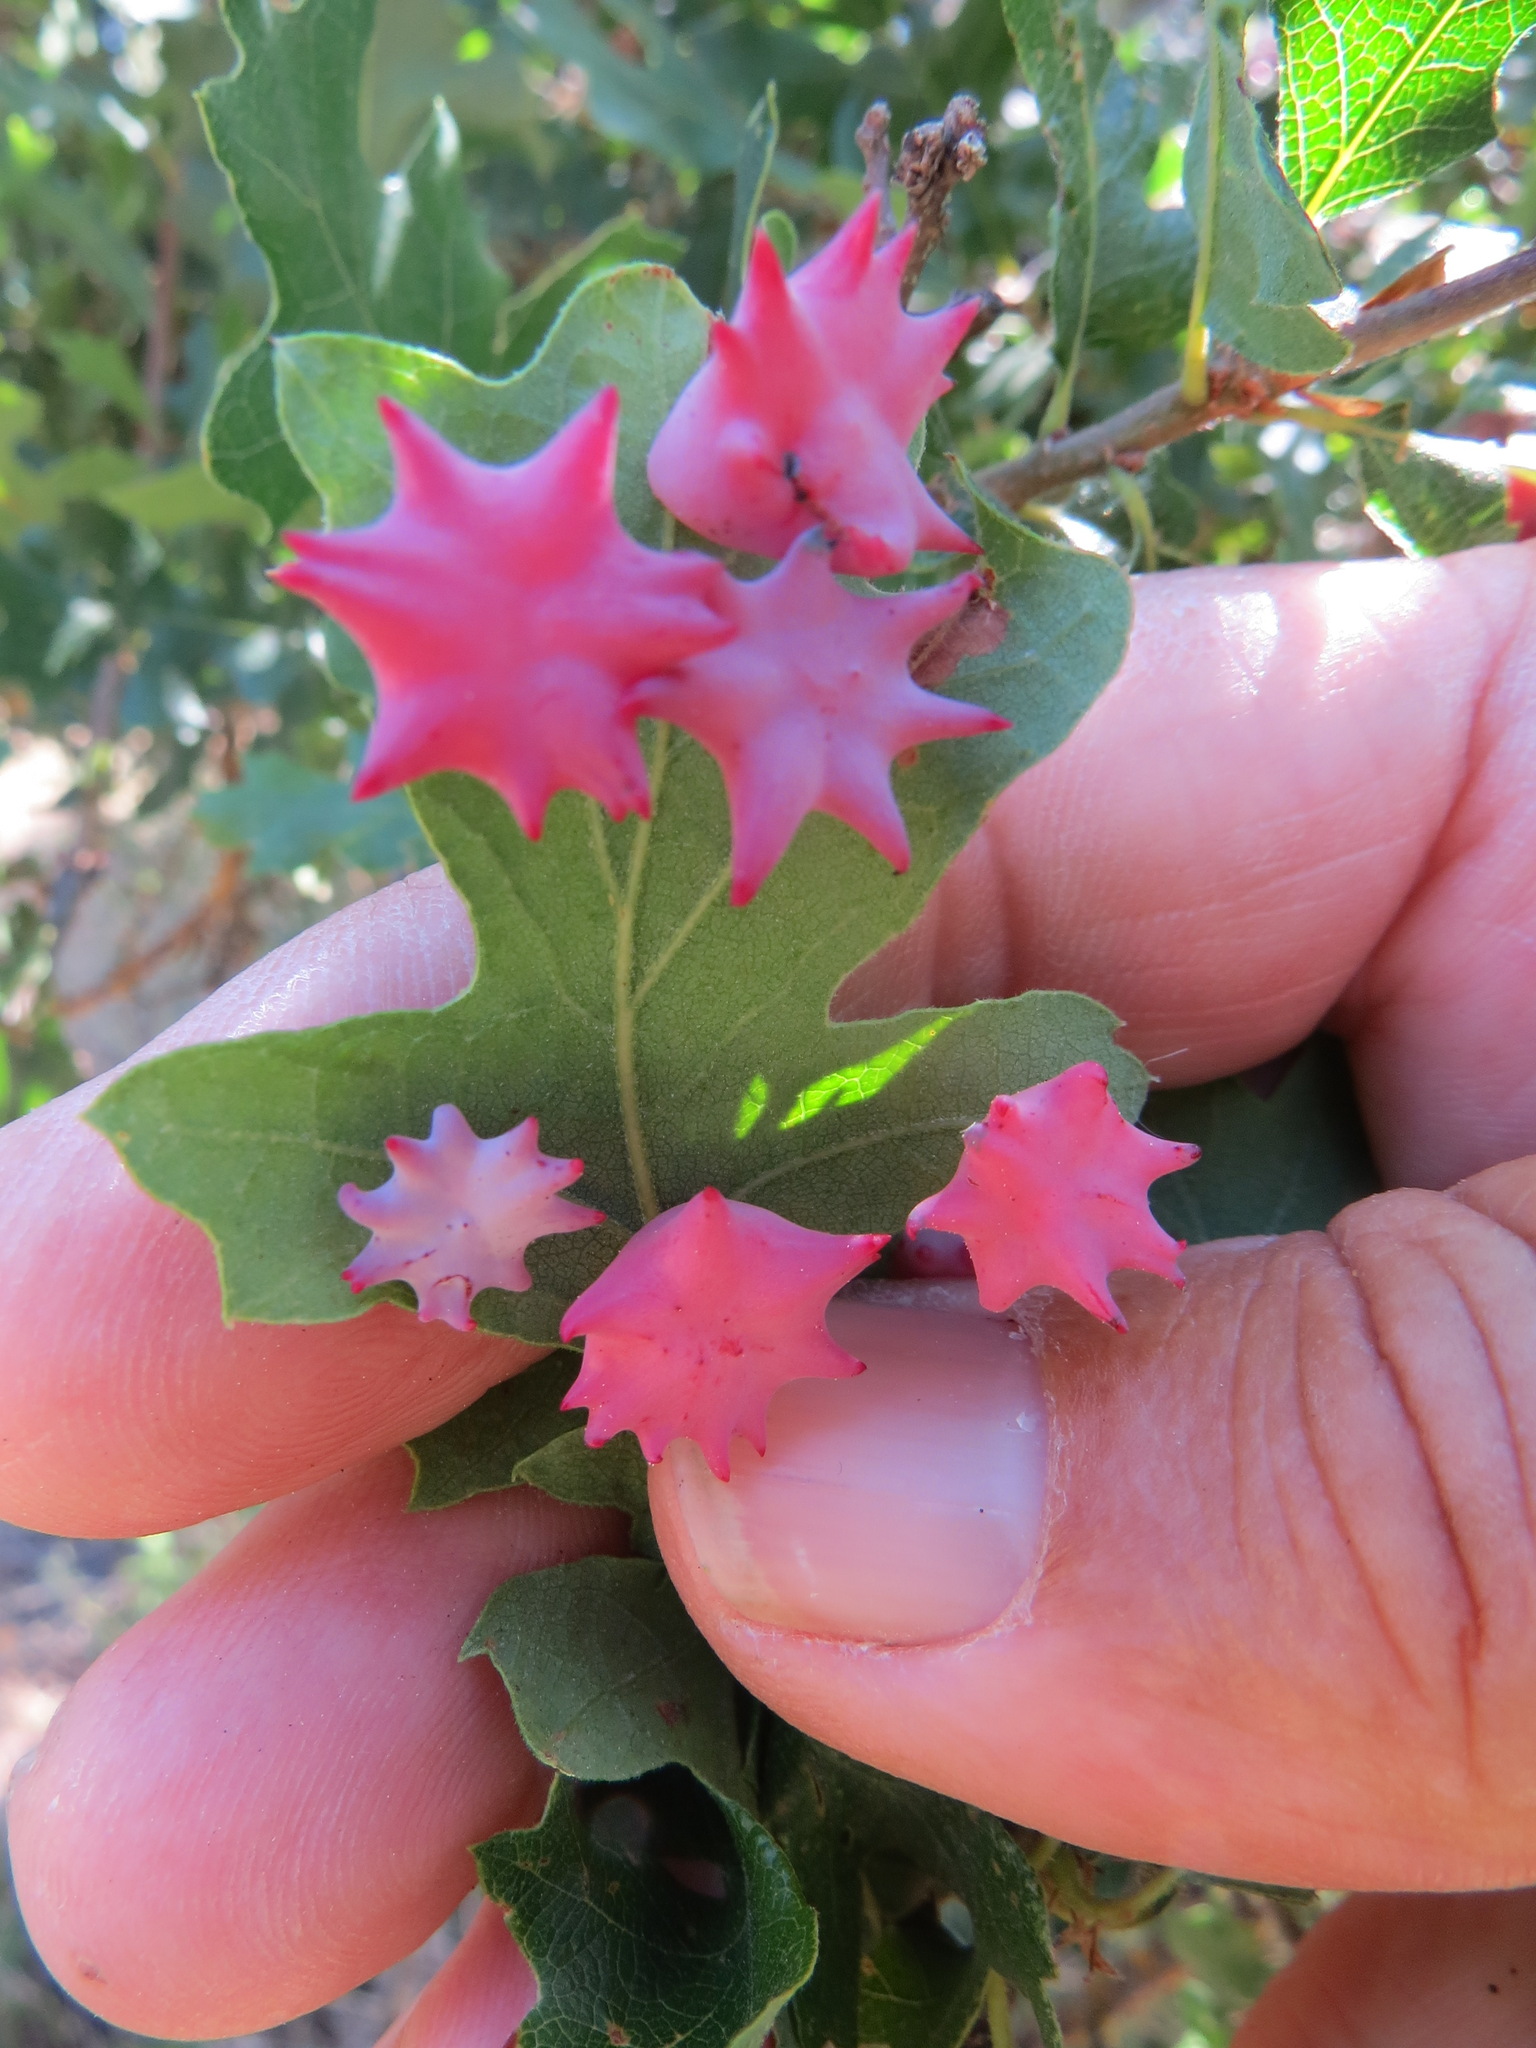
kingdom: Animalia
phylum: Arthropoda
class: Insecta
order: Hymenoptera
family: Cynipidae
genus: Cynips
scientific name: Cynips douglasi
